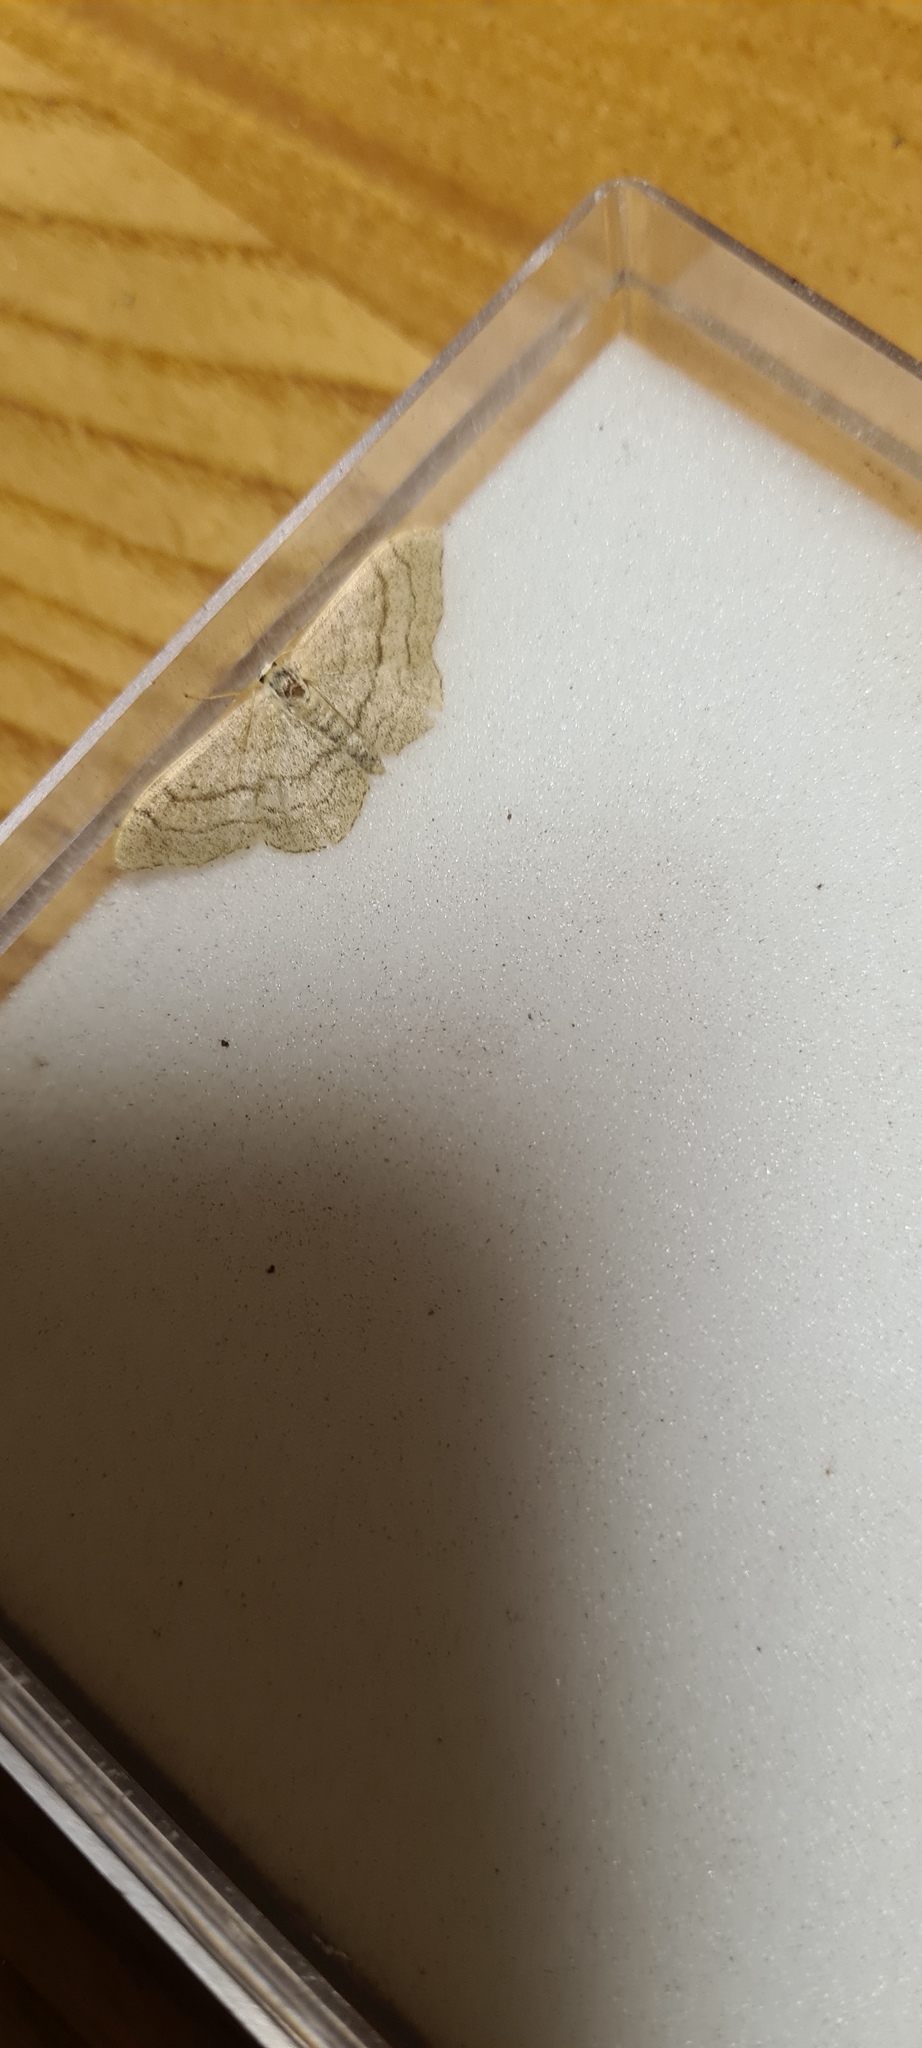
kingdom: Animalia
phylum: Arthropoda
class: Insecta
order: Lepidoptera
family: Geometridae
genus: Idaea
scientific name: Idaea aversata
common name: Riband wave
